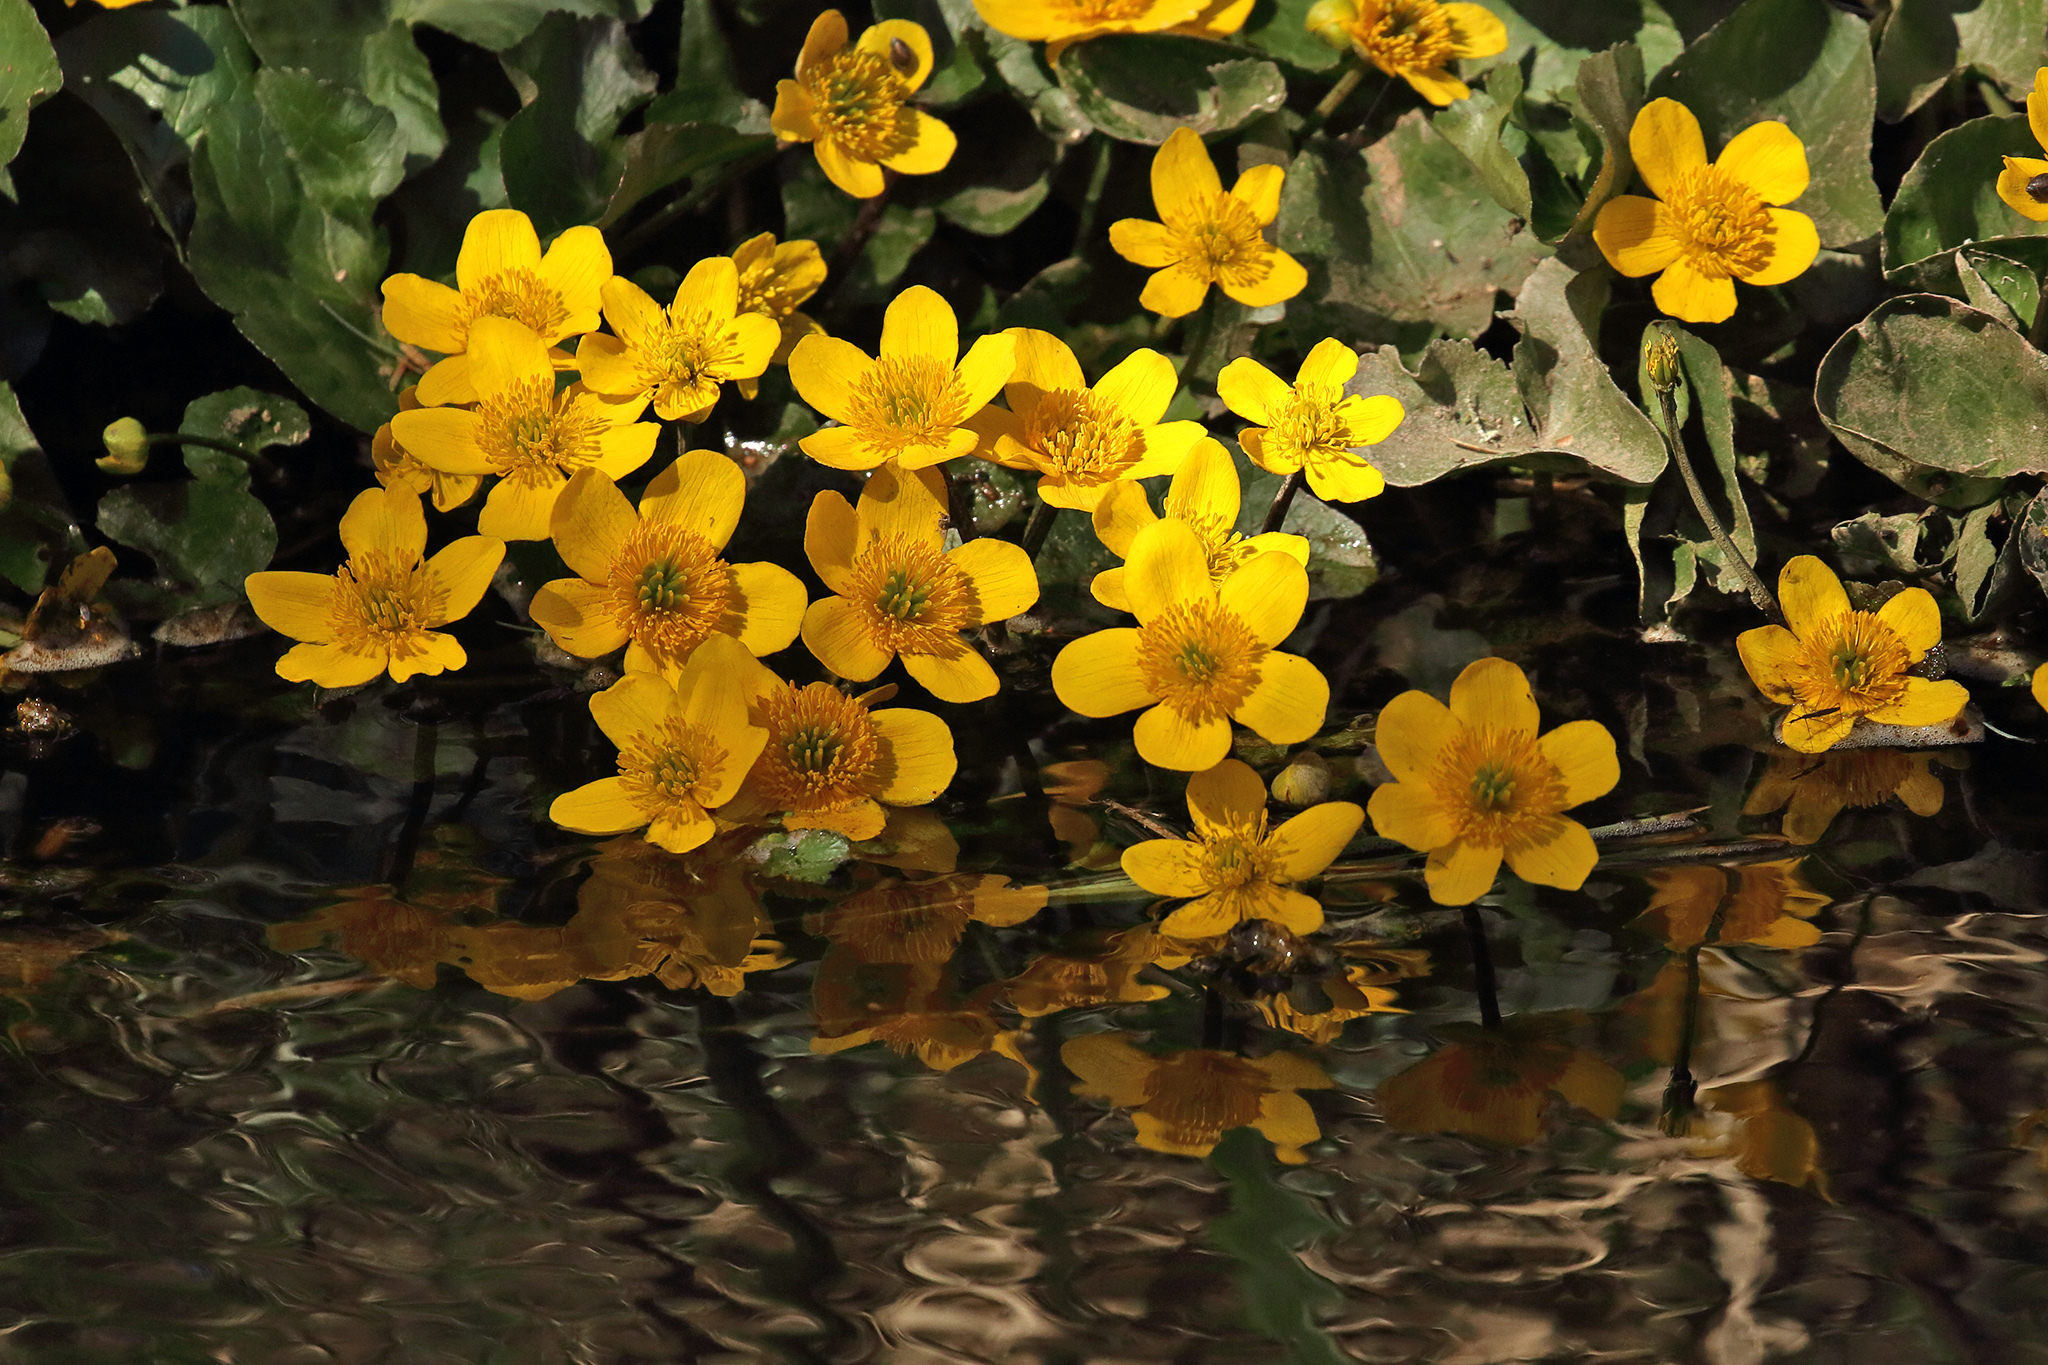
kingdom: Plantae
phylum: Tracheophyta
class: Magnoliopsida
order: Ranunculales
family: Ranunculaceae
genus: Caltha
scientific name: Caltha palustris
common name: Marsh marigold
